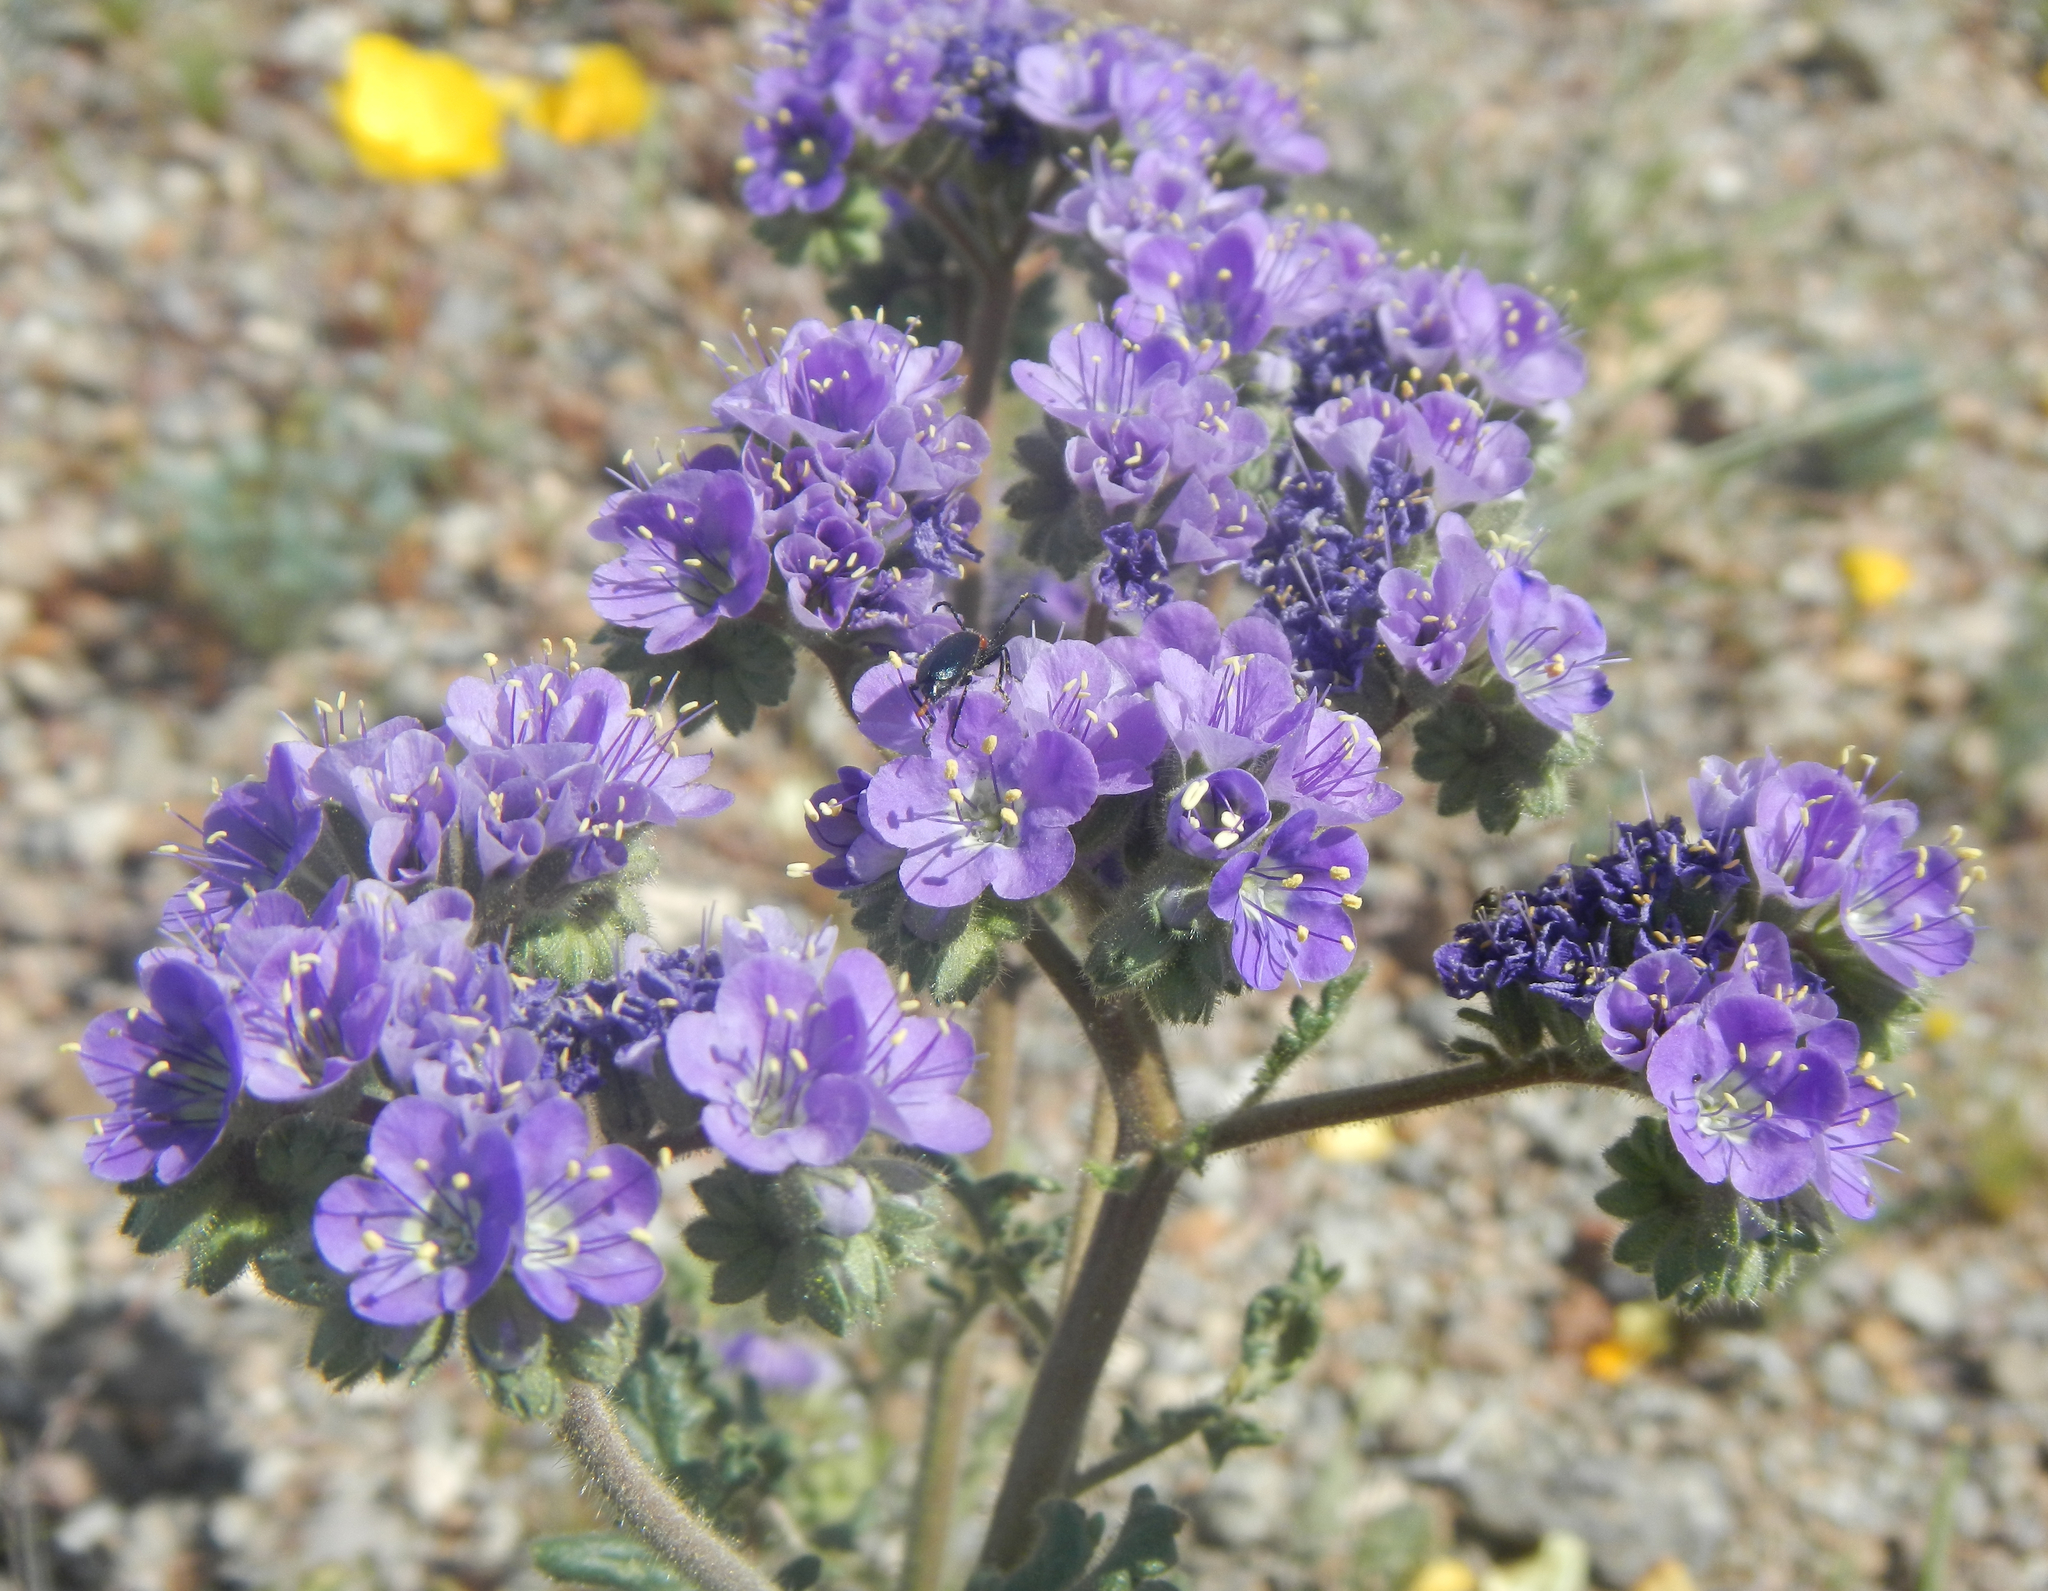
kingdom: Plantae
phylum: Tracheophyta
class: Magnoliopsida
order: Boraginales
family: Hydrophyllaceae
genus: Phacelia
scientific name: Phacelia crenulata
